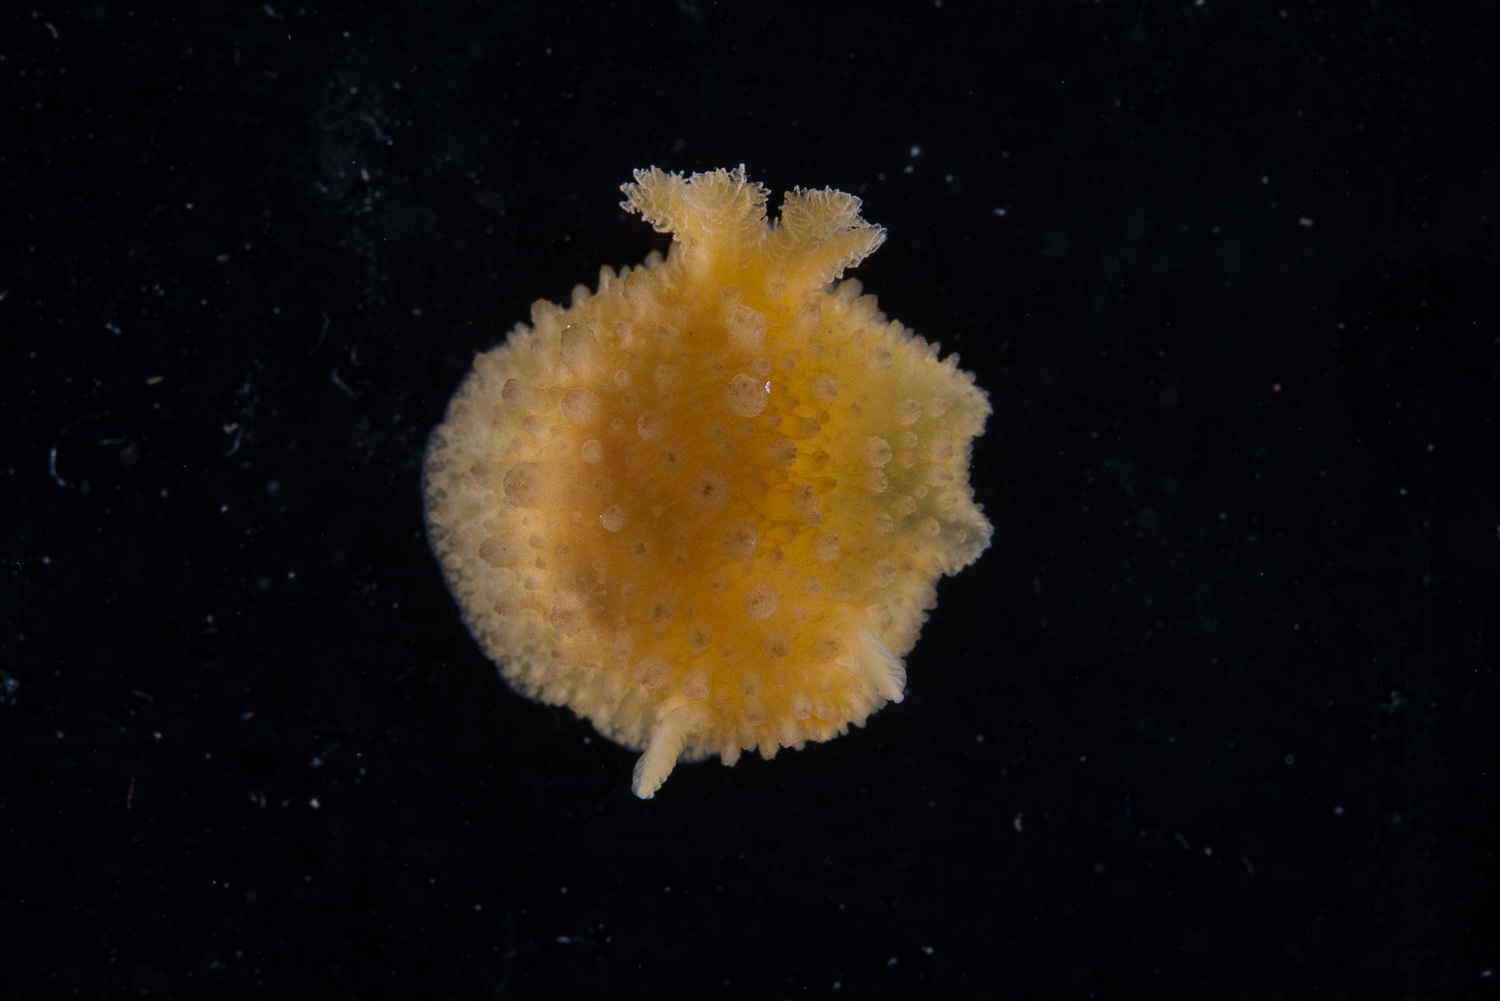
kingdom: Animalia
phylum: Mollusca
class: Gastropoda
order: Nudibranchia
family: Dorididae
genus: Doris
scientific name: Doris ocelligera
